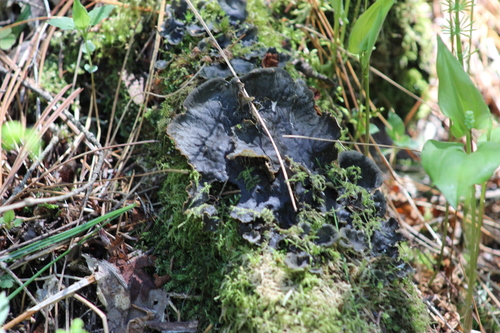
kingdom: Fungi
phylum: Ascomycota
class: Lecanoromycetes
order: Peltigerales
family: Peltigeraceae
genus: Peltigera
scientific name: Peltigera neopolydactyla
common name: Carpet pelt
